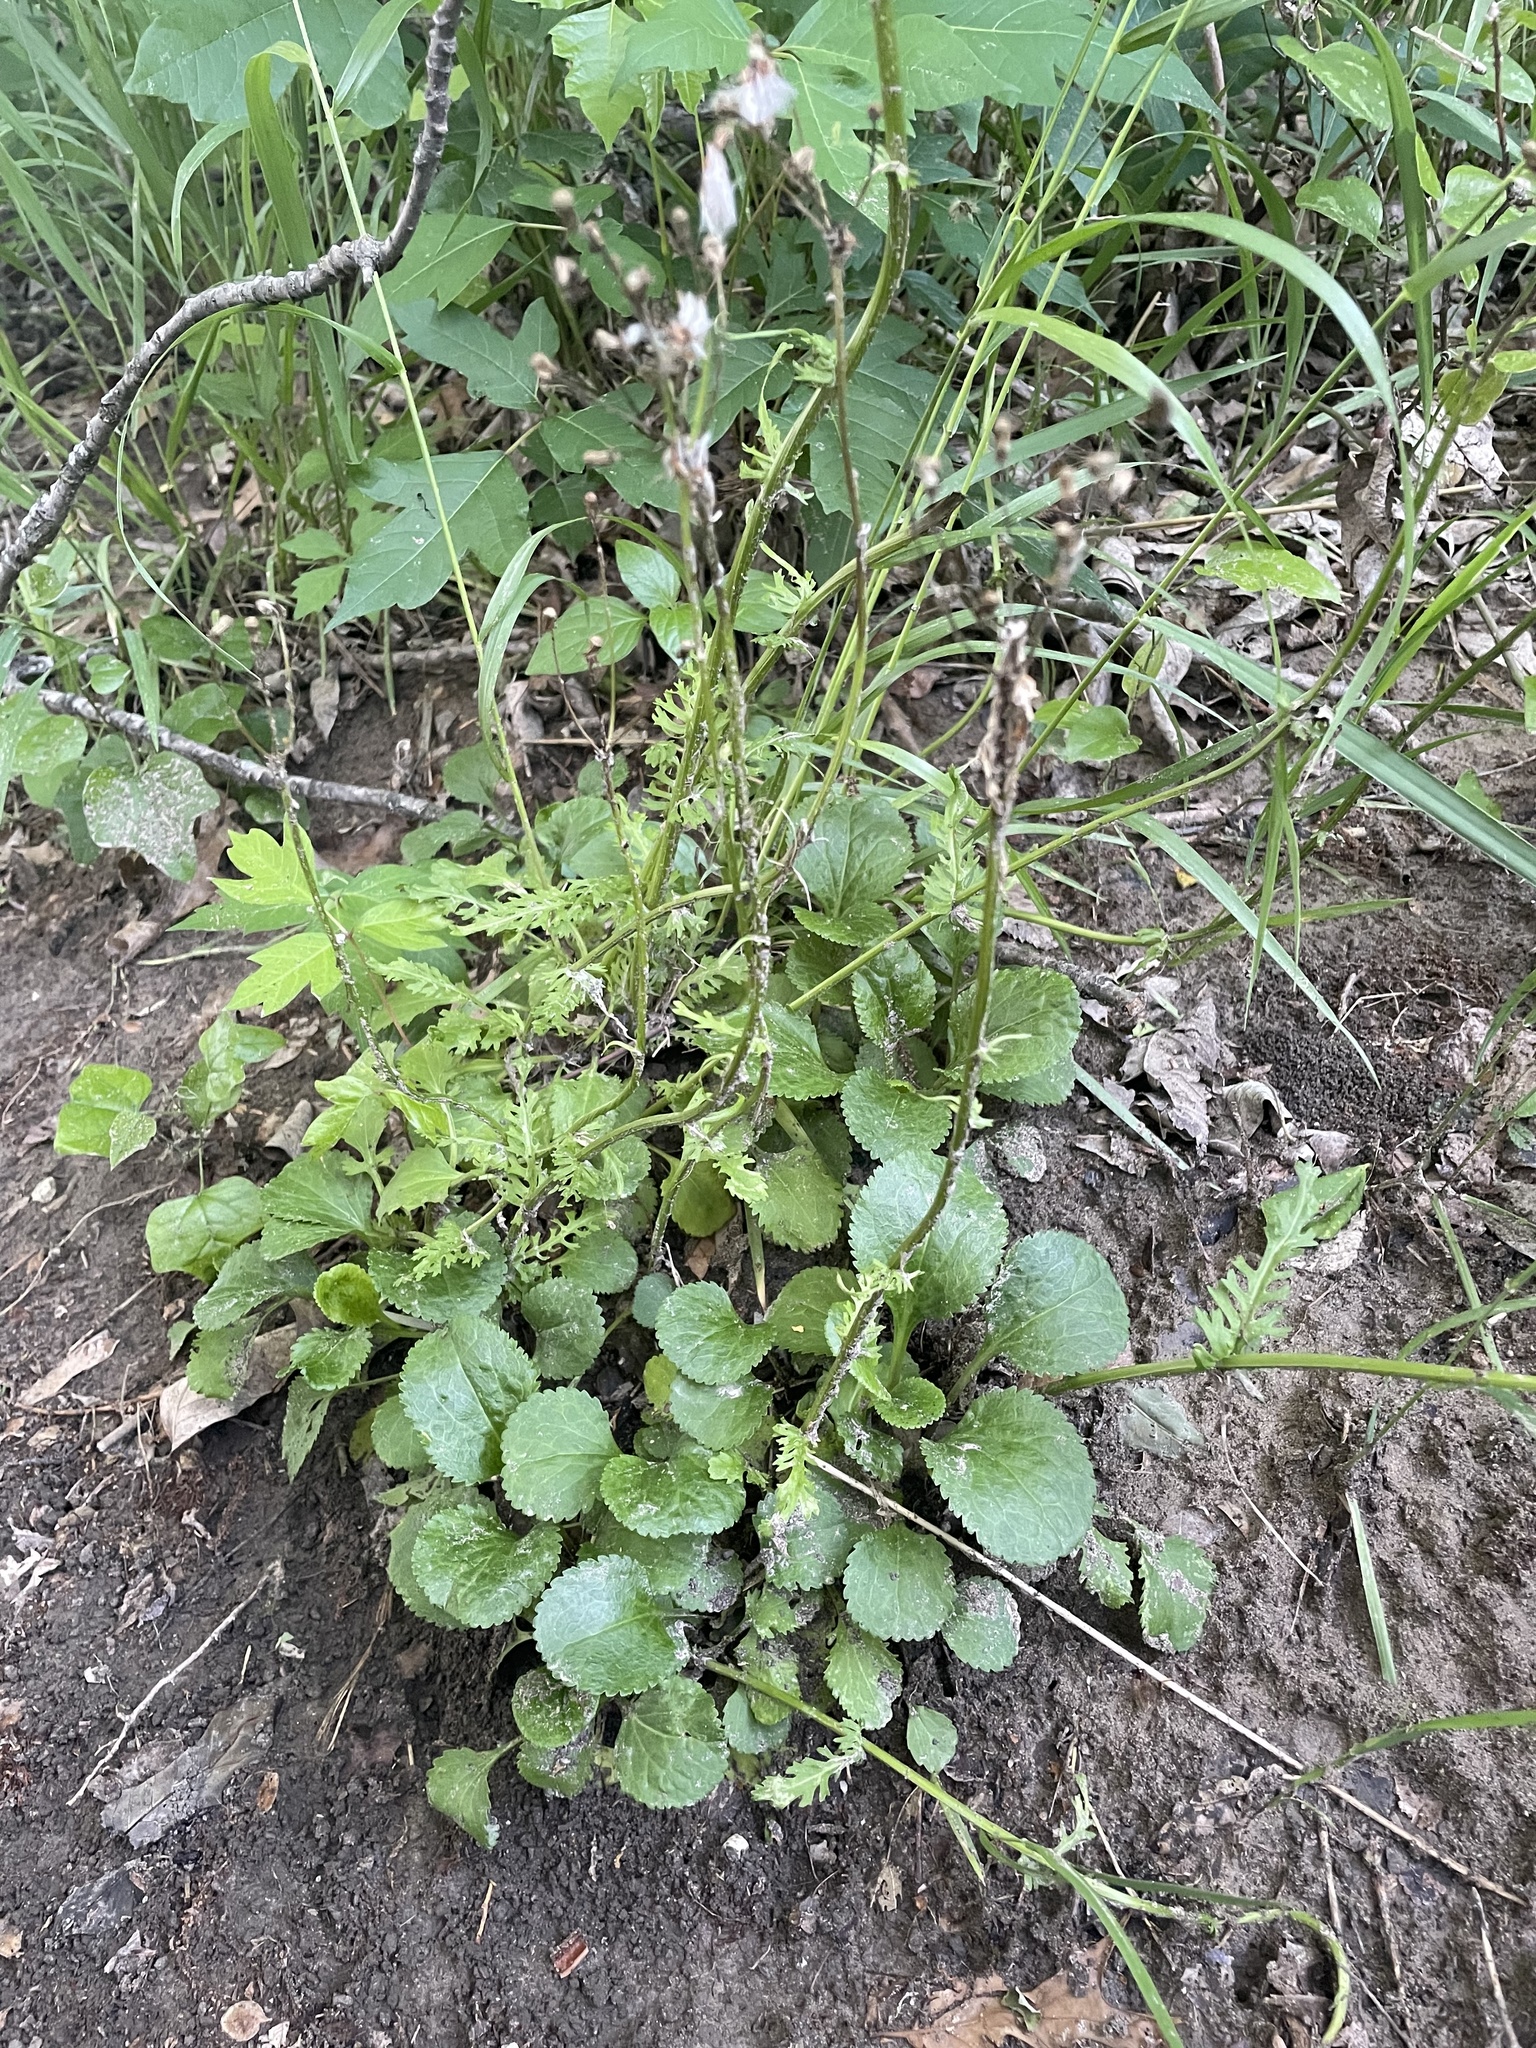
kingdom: Plantae
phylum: Tracheophyta
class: Magnoliopsida
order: Asterales
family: Asteraceae
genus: Packera
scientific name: Packera obovata
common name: Round-leaf ragwort
